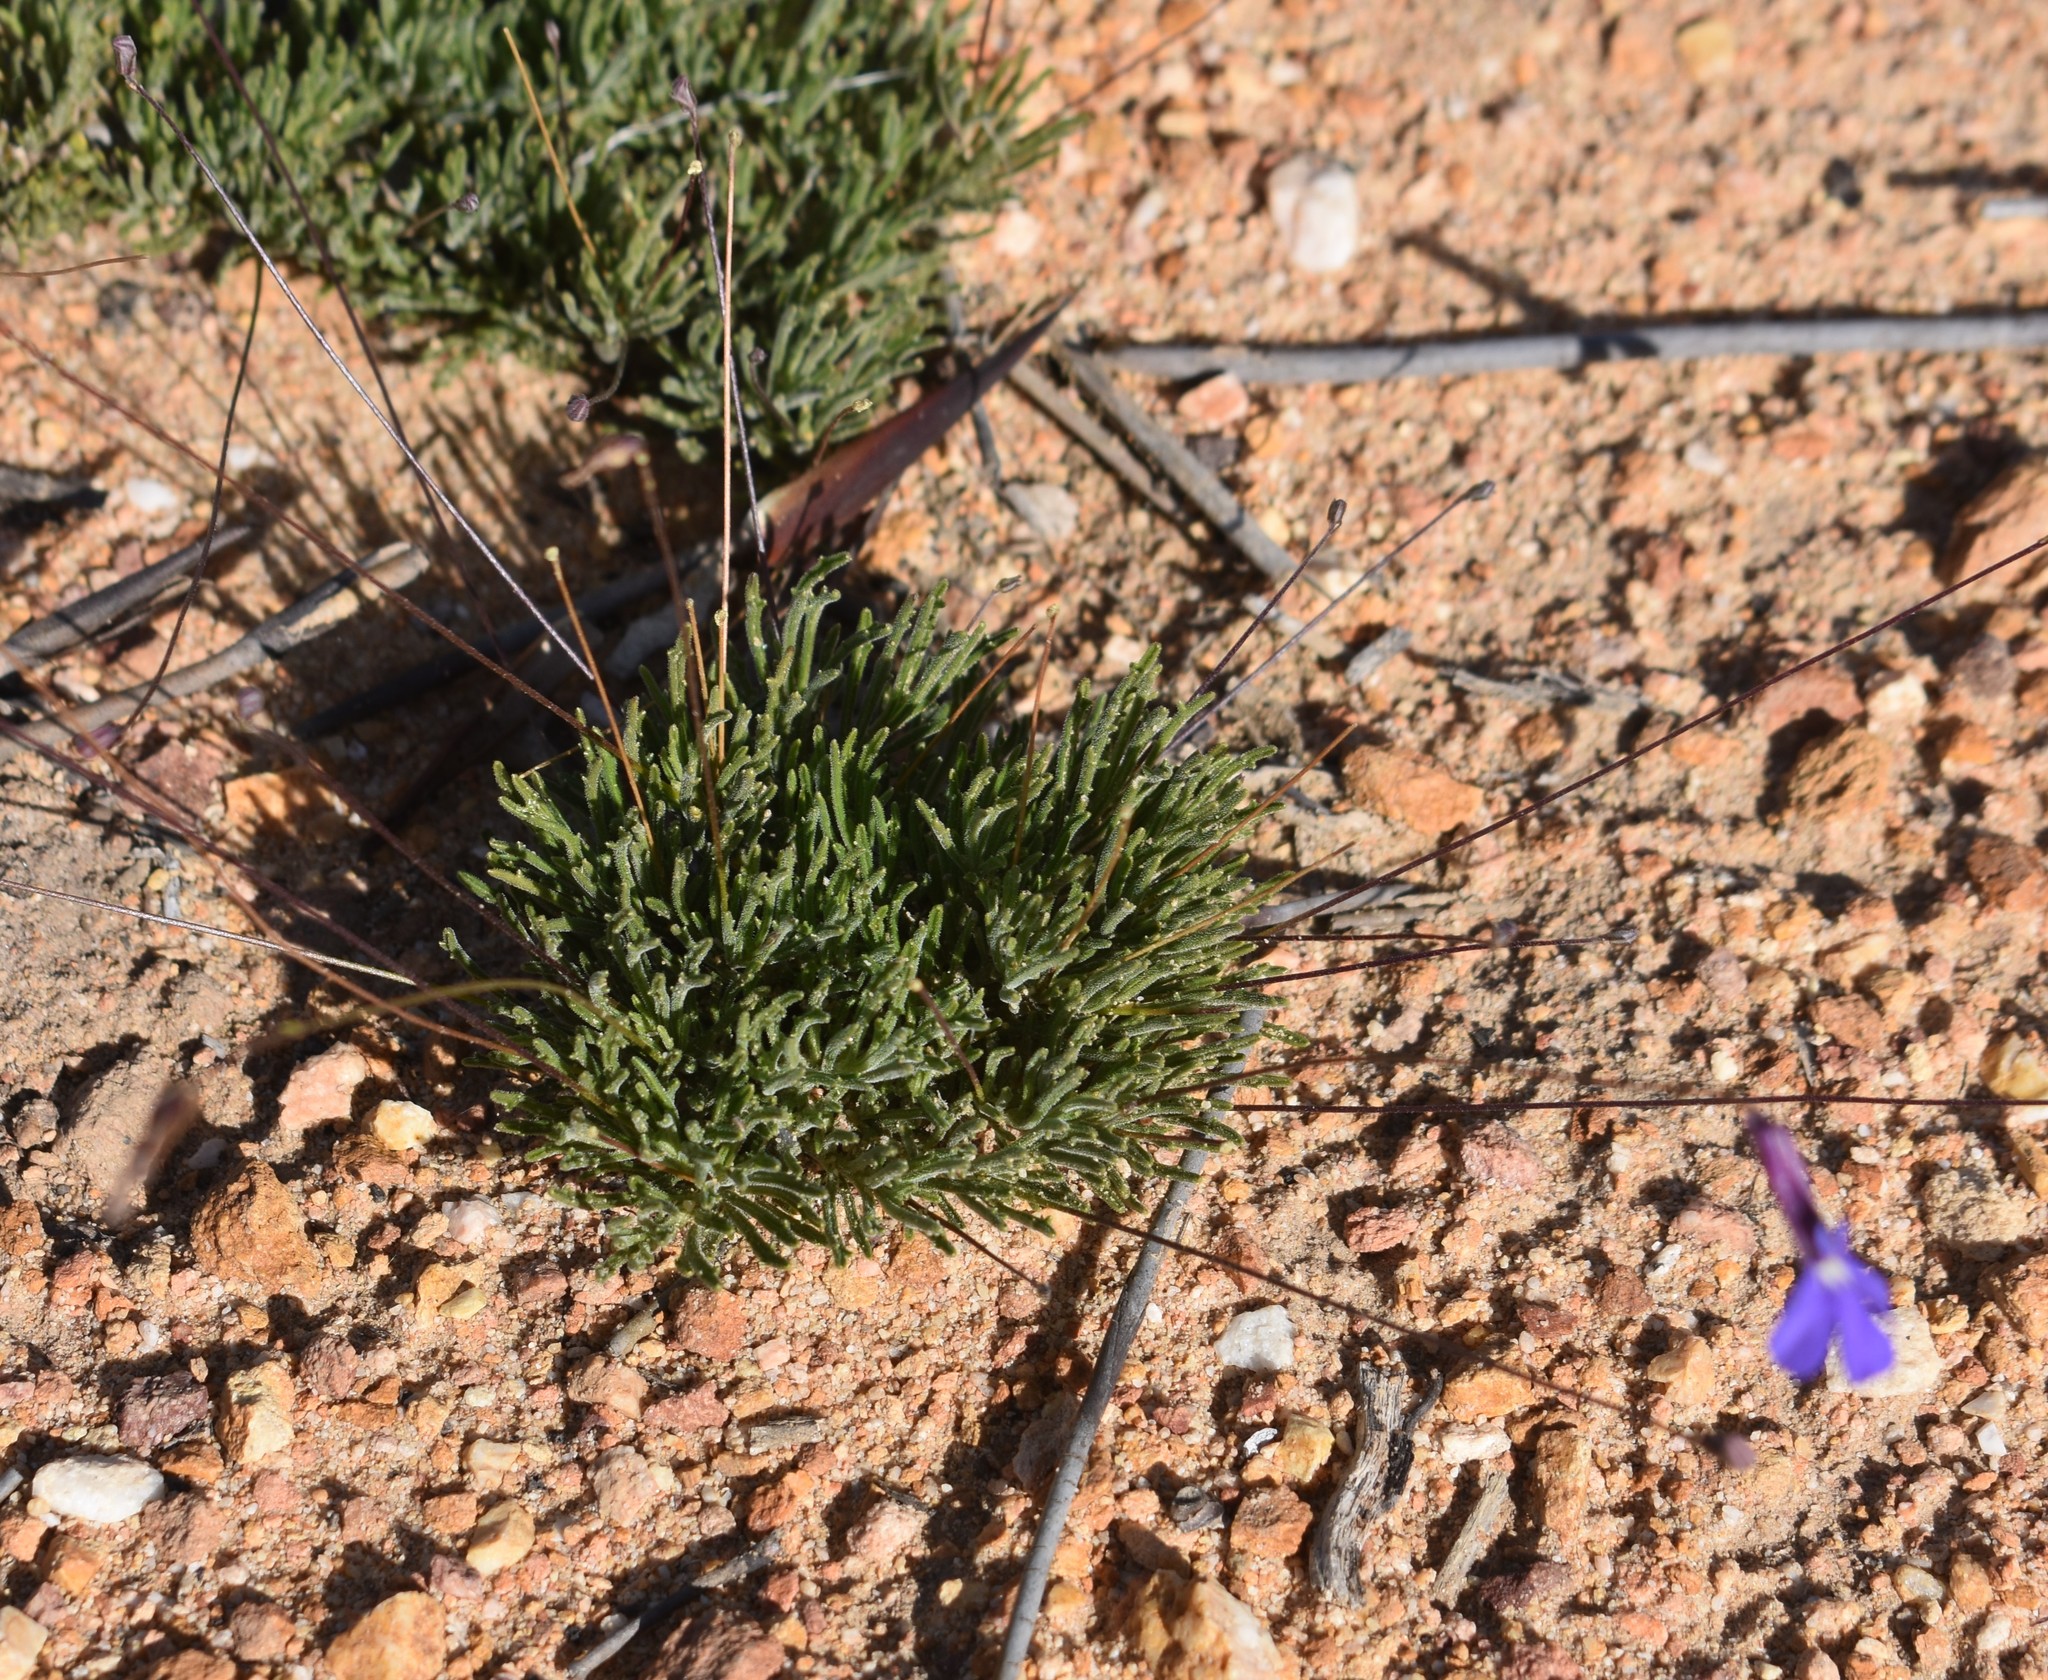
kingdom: Plantae
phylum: Tracheophyta
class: Magnoliopsida
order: Asterales
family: Campanulaceae
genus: Lobelia
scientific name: Lobelia tomentosa
